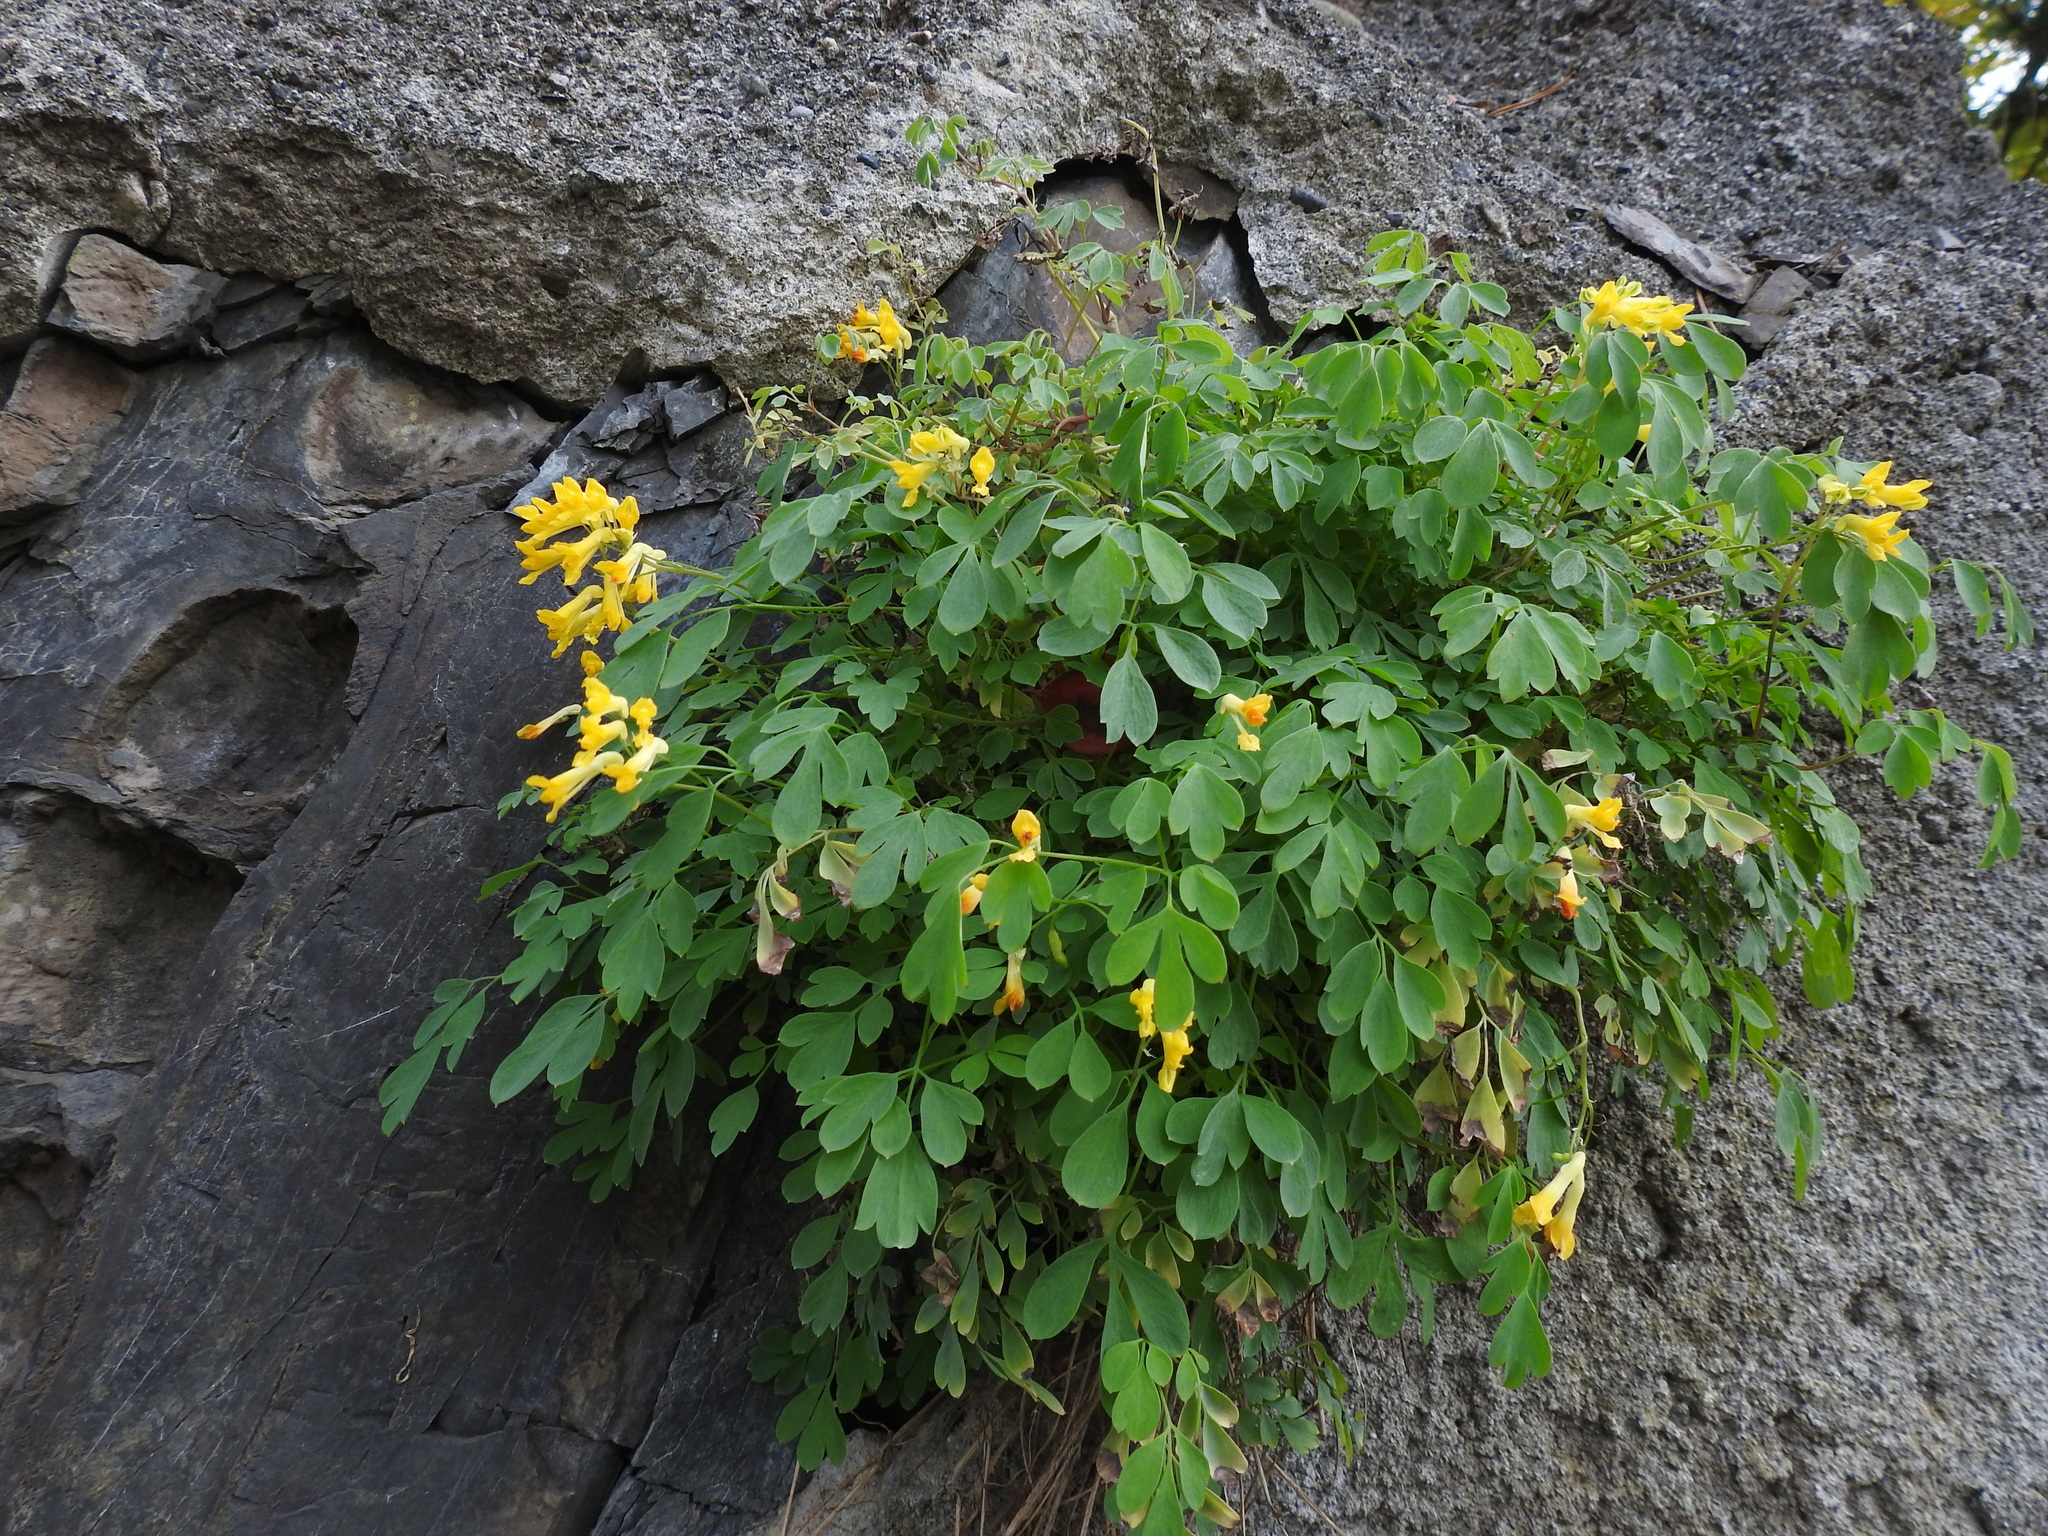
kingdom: Plantae
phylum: Tracheophyta
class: Magnoliopsida
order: Ranunculales
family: Papaveraceae
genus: Pseudofumaria
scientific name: Pseudofumaria lutea
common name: Yellow corydalis
